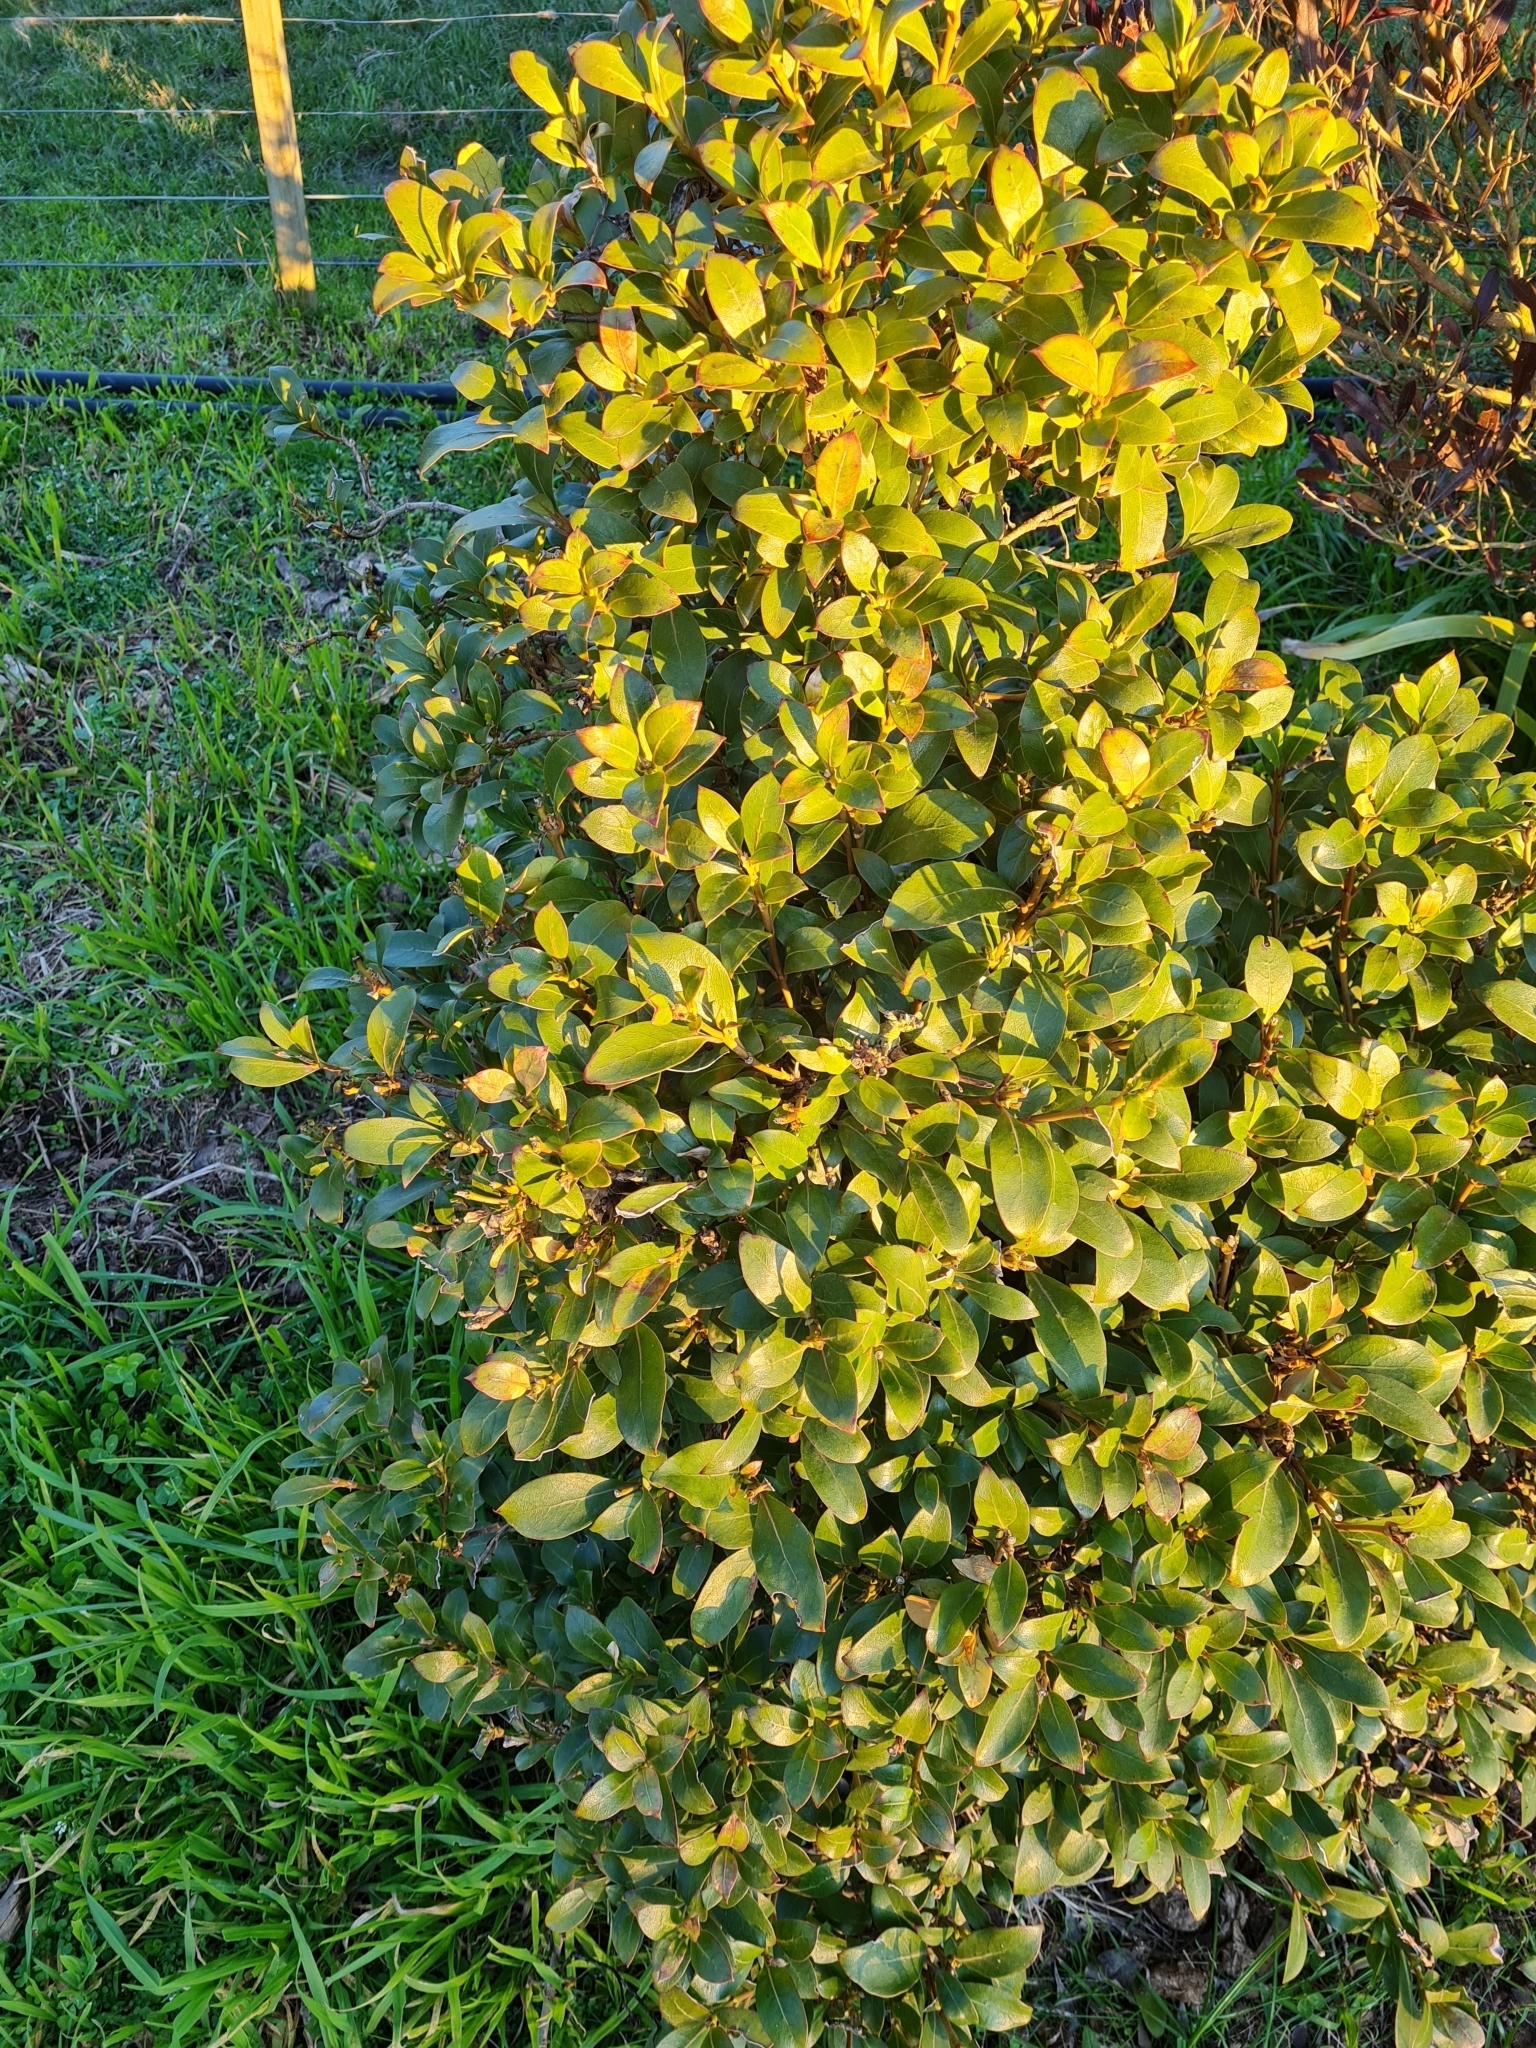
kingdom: Plantae
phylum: Tracheophyta
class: Magnoliopsida
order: Gentianales
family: Rubiaceae
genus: Coprosma
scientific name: Coprosma lucida
